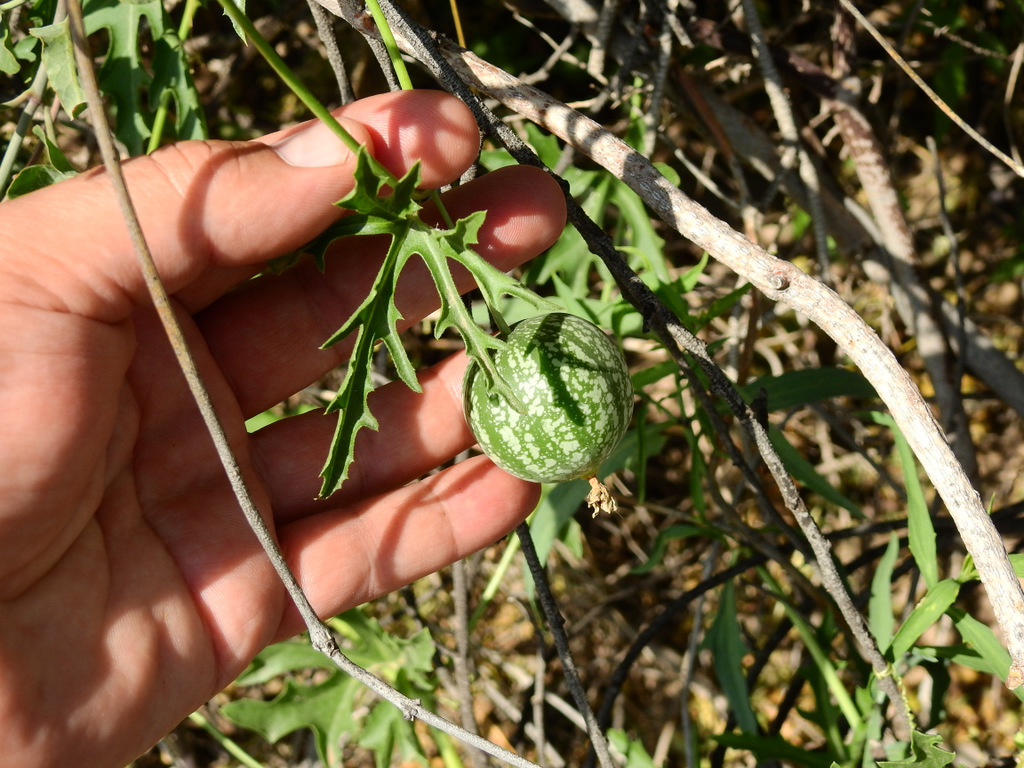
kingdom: Plantae
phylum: Tracheophyta
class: Magnoliopsida
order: Cucurbitales
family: Cucurbitaceae
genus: Cucurbitella
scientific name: Cucurbitella asperata
